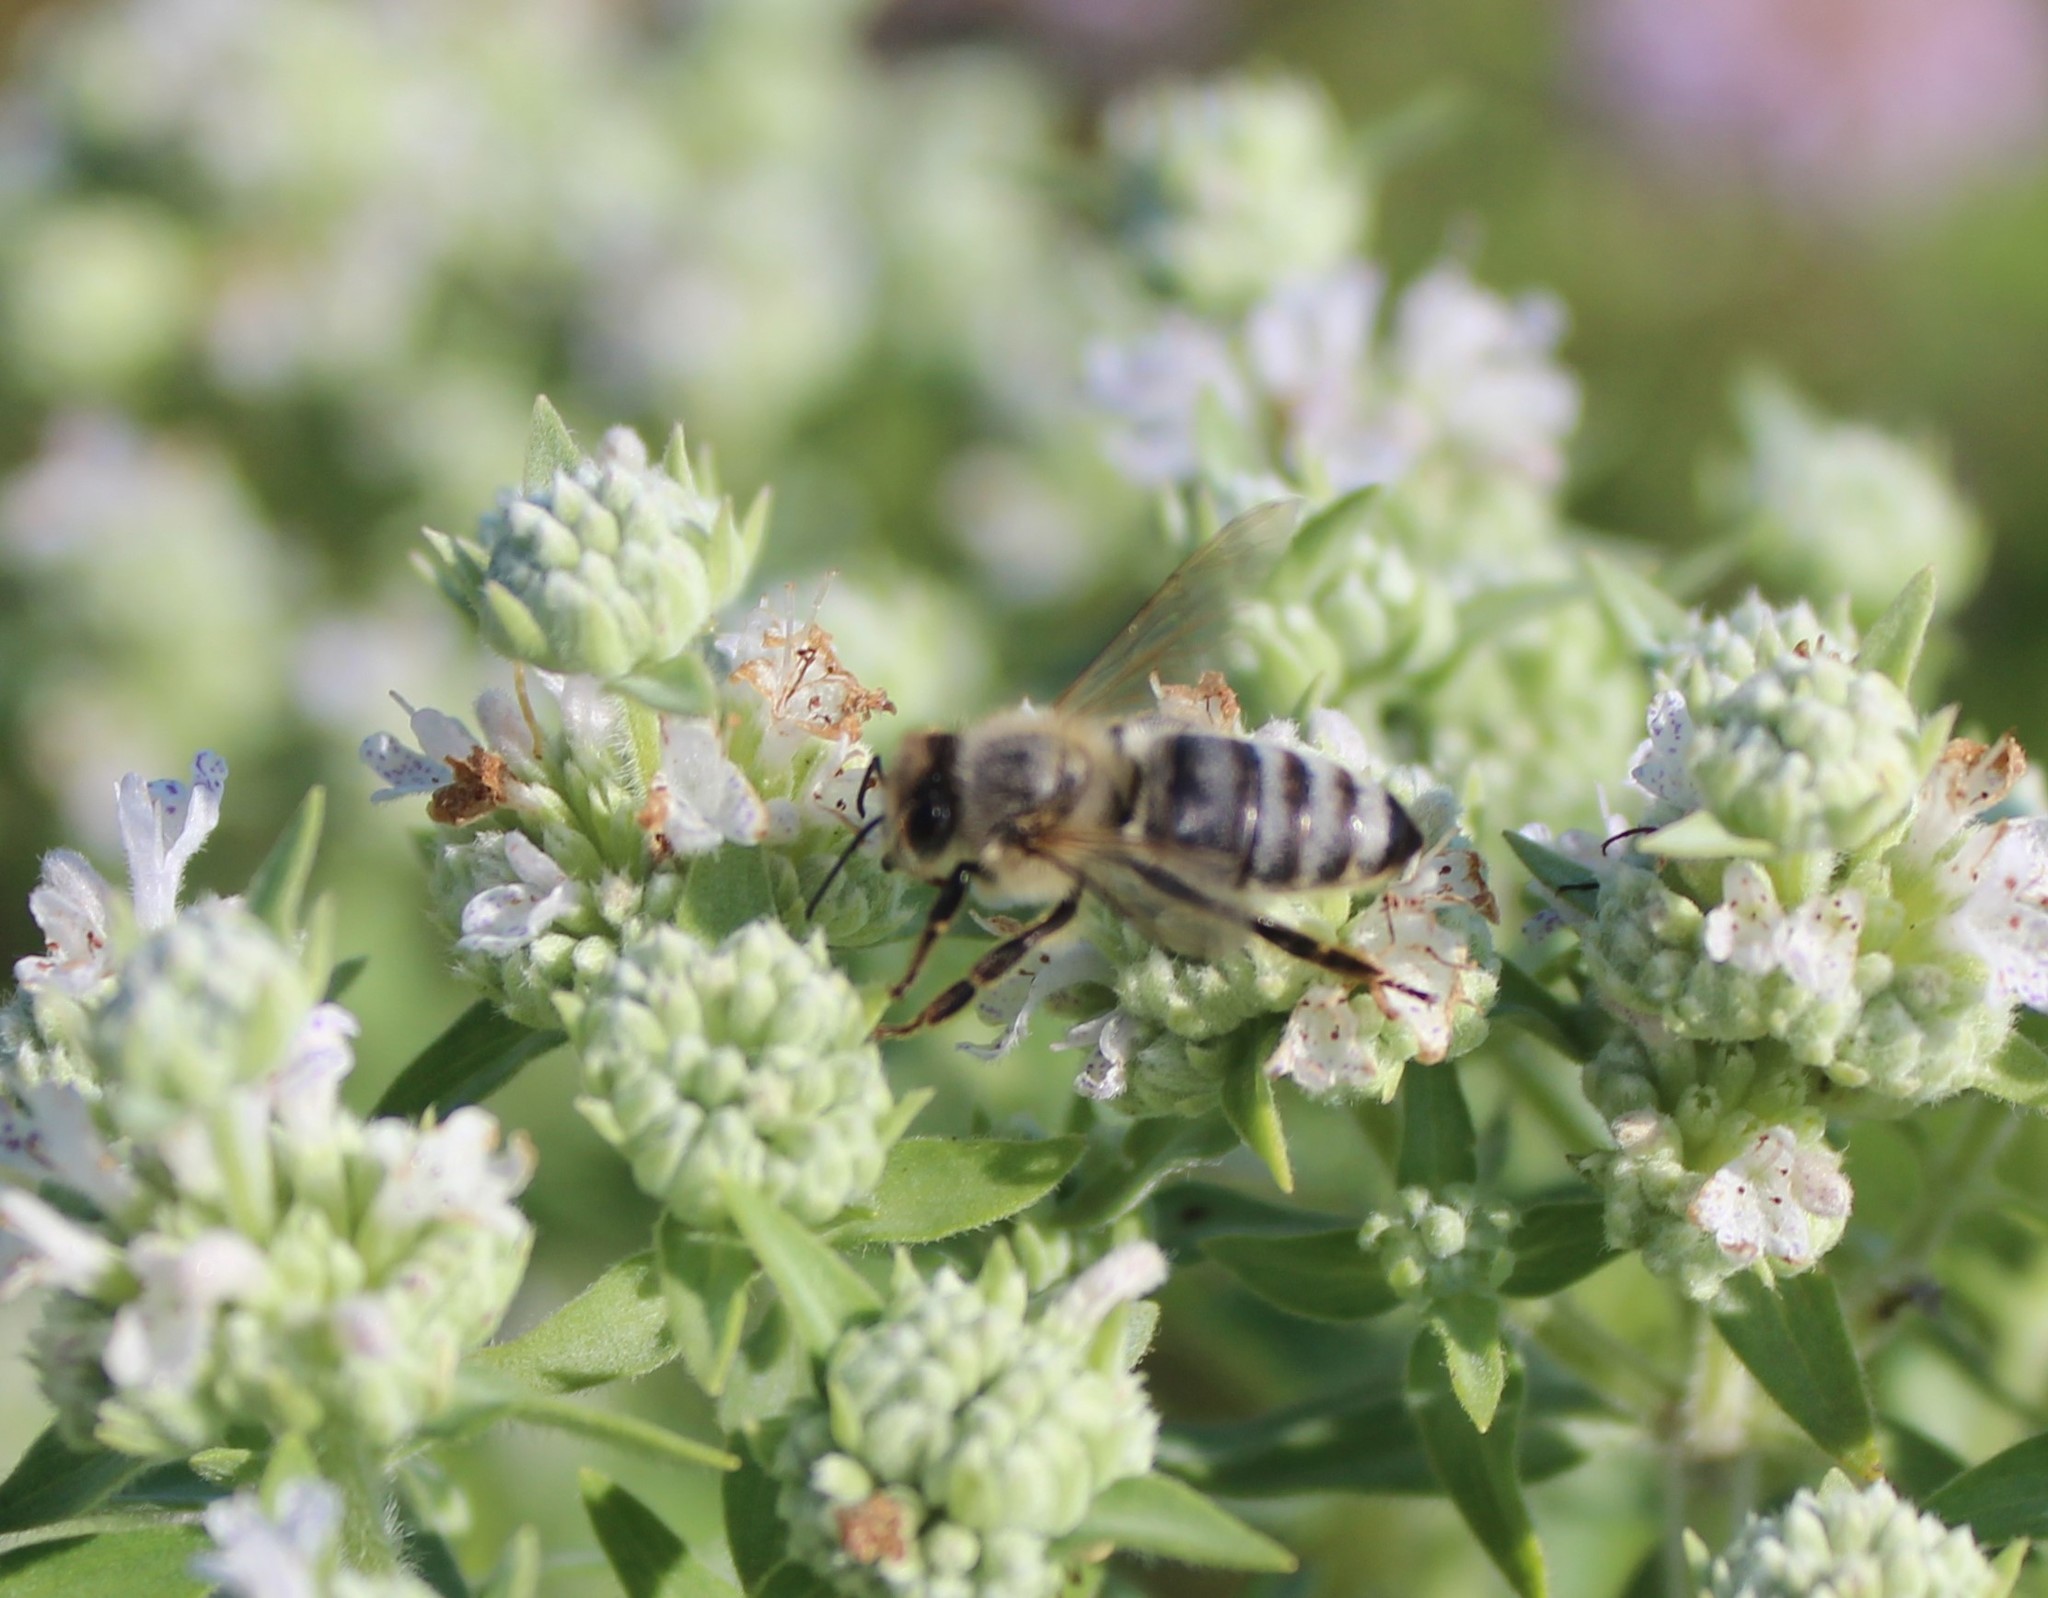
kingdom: Animalia
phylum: Arthropoda
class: Insecta
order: Hymenoptera
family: Apidae
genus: Apis
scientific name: Apis mellifera
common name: Honey bee
